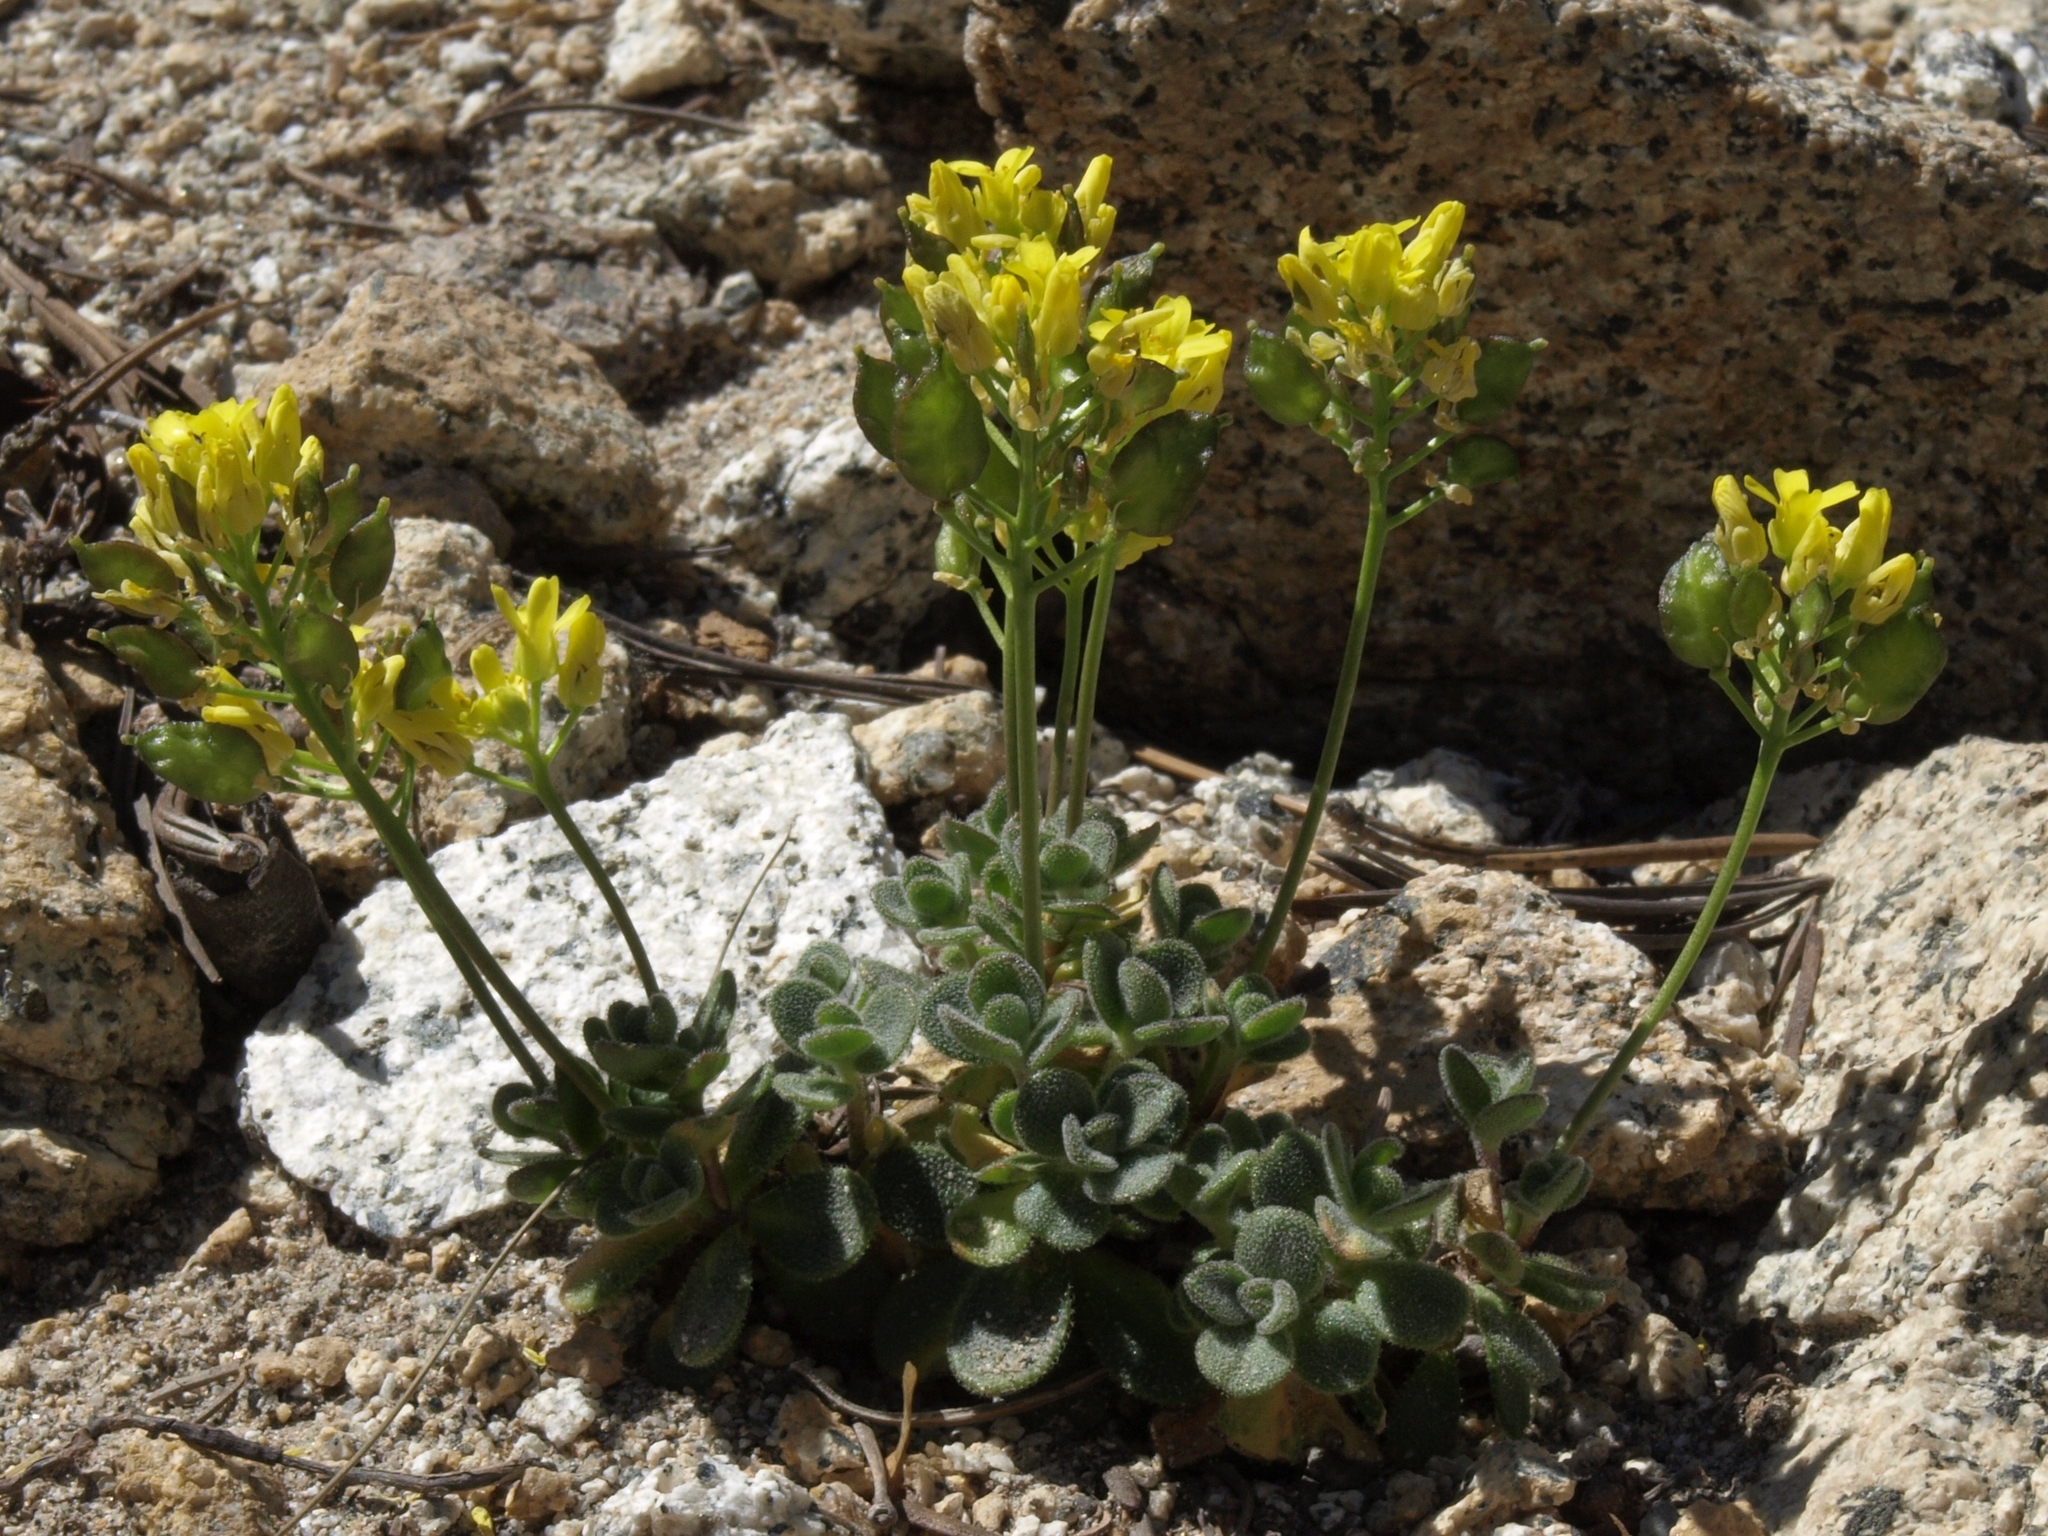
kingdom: Plantae
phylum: Tracheophyta
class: Magnoliopsida
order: Brassicales
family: Brassicaceae
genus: Draba
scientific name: Draba asterophora
